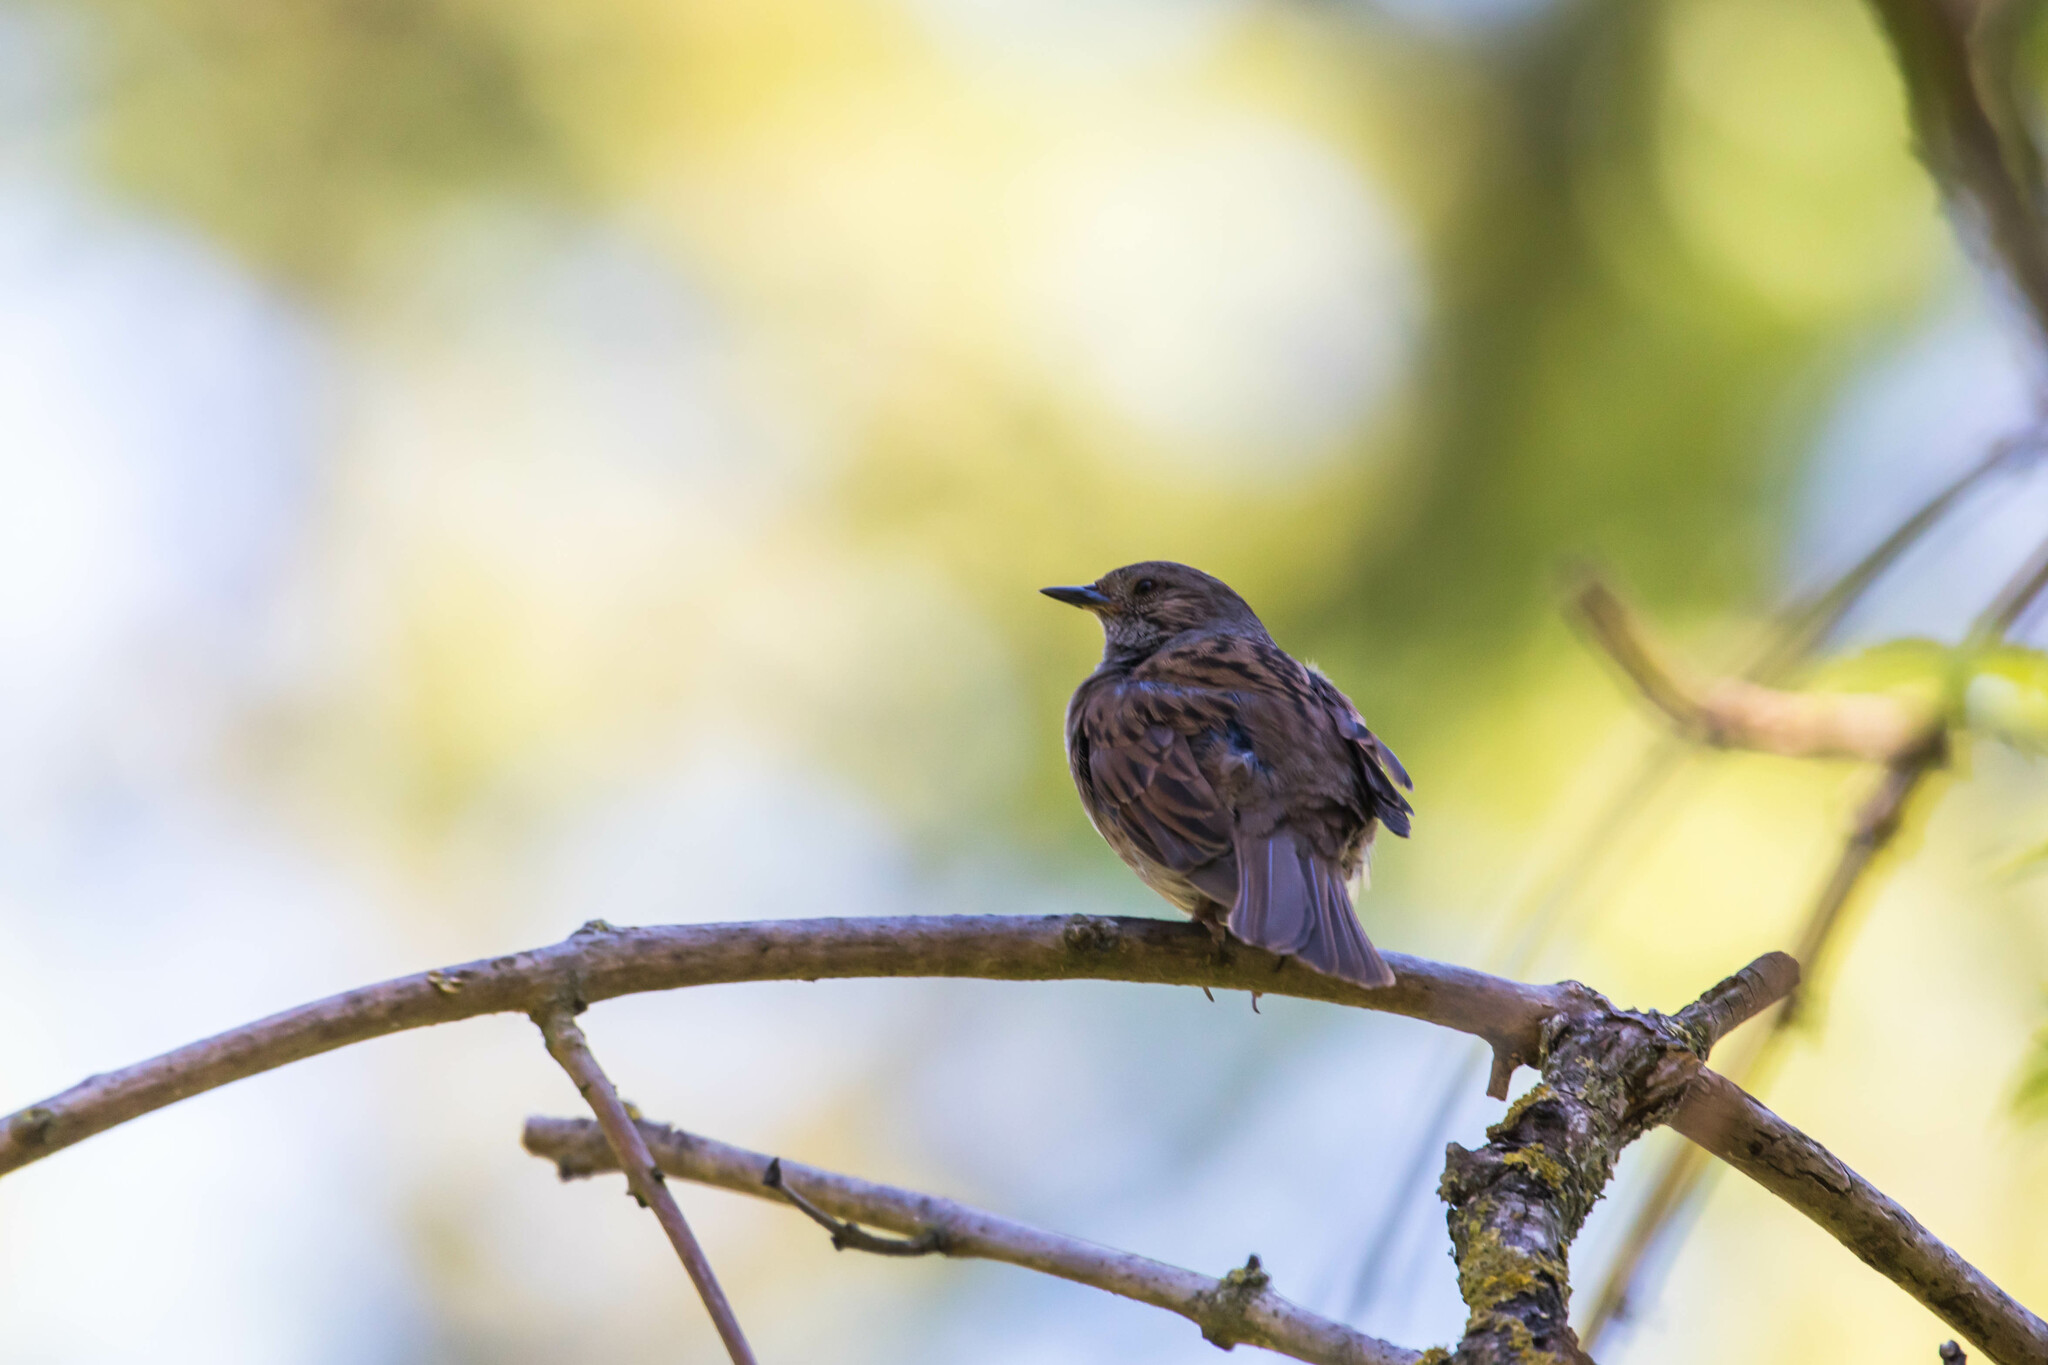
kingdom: Animalia
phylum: Chordata
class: Aves
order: Passeriformes
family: Prunellidae
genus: Prunella
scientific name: Prunella modularis
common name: Dunnock
